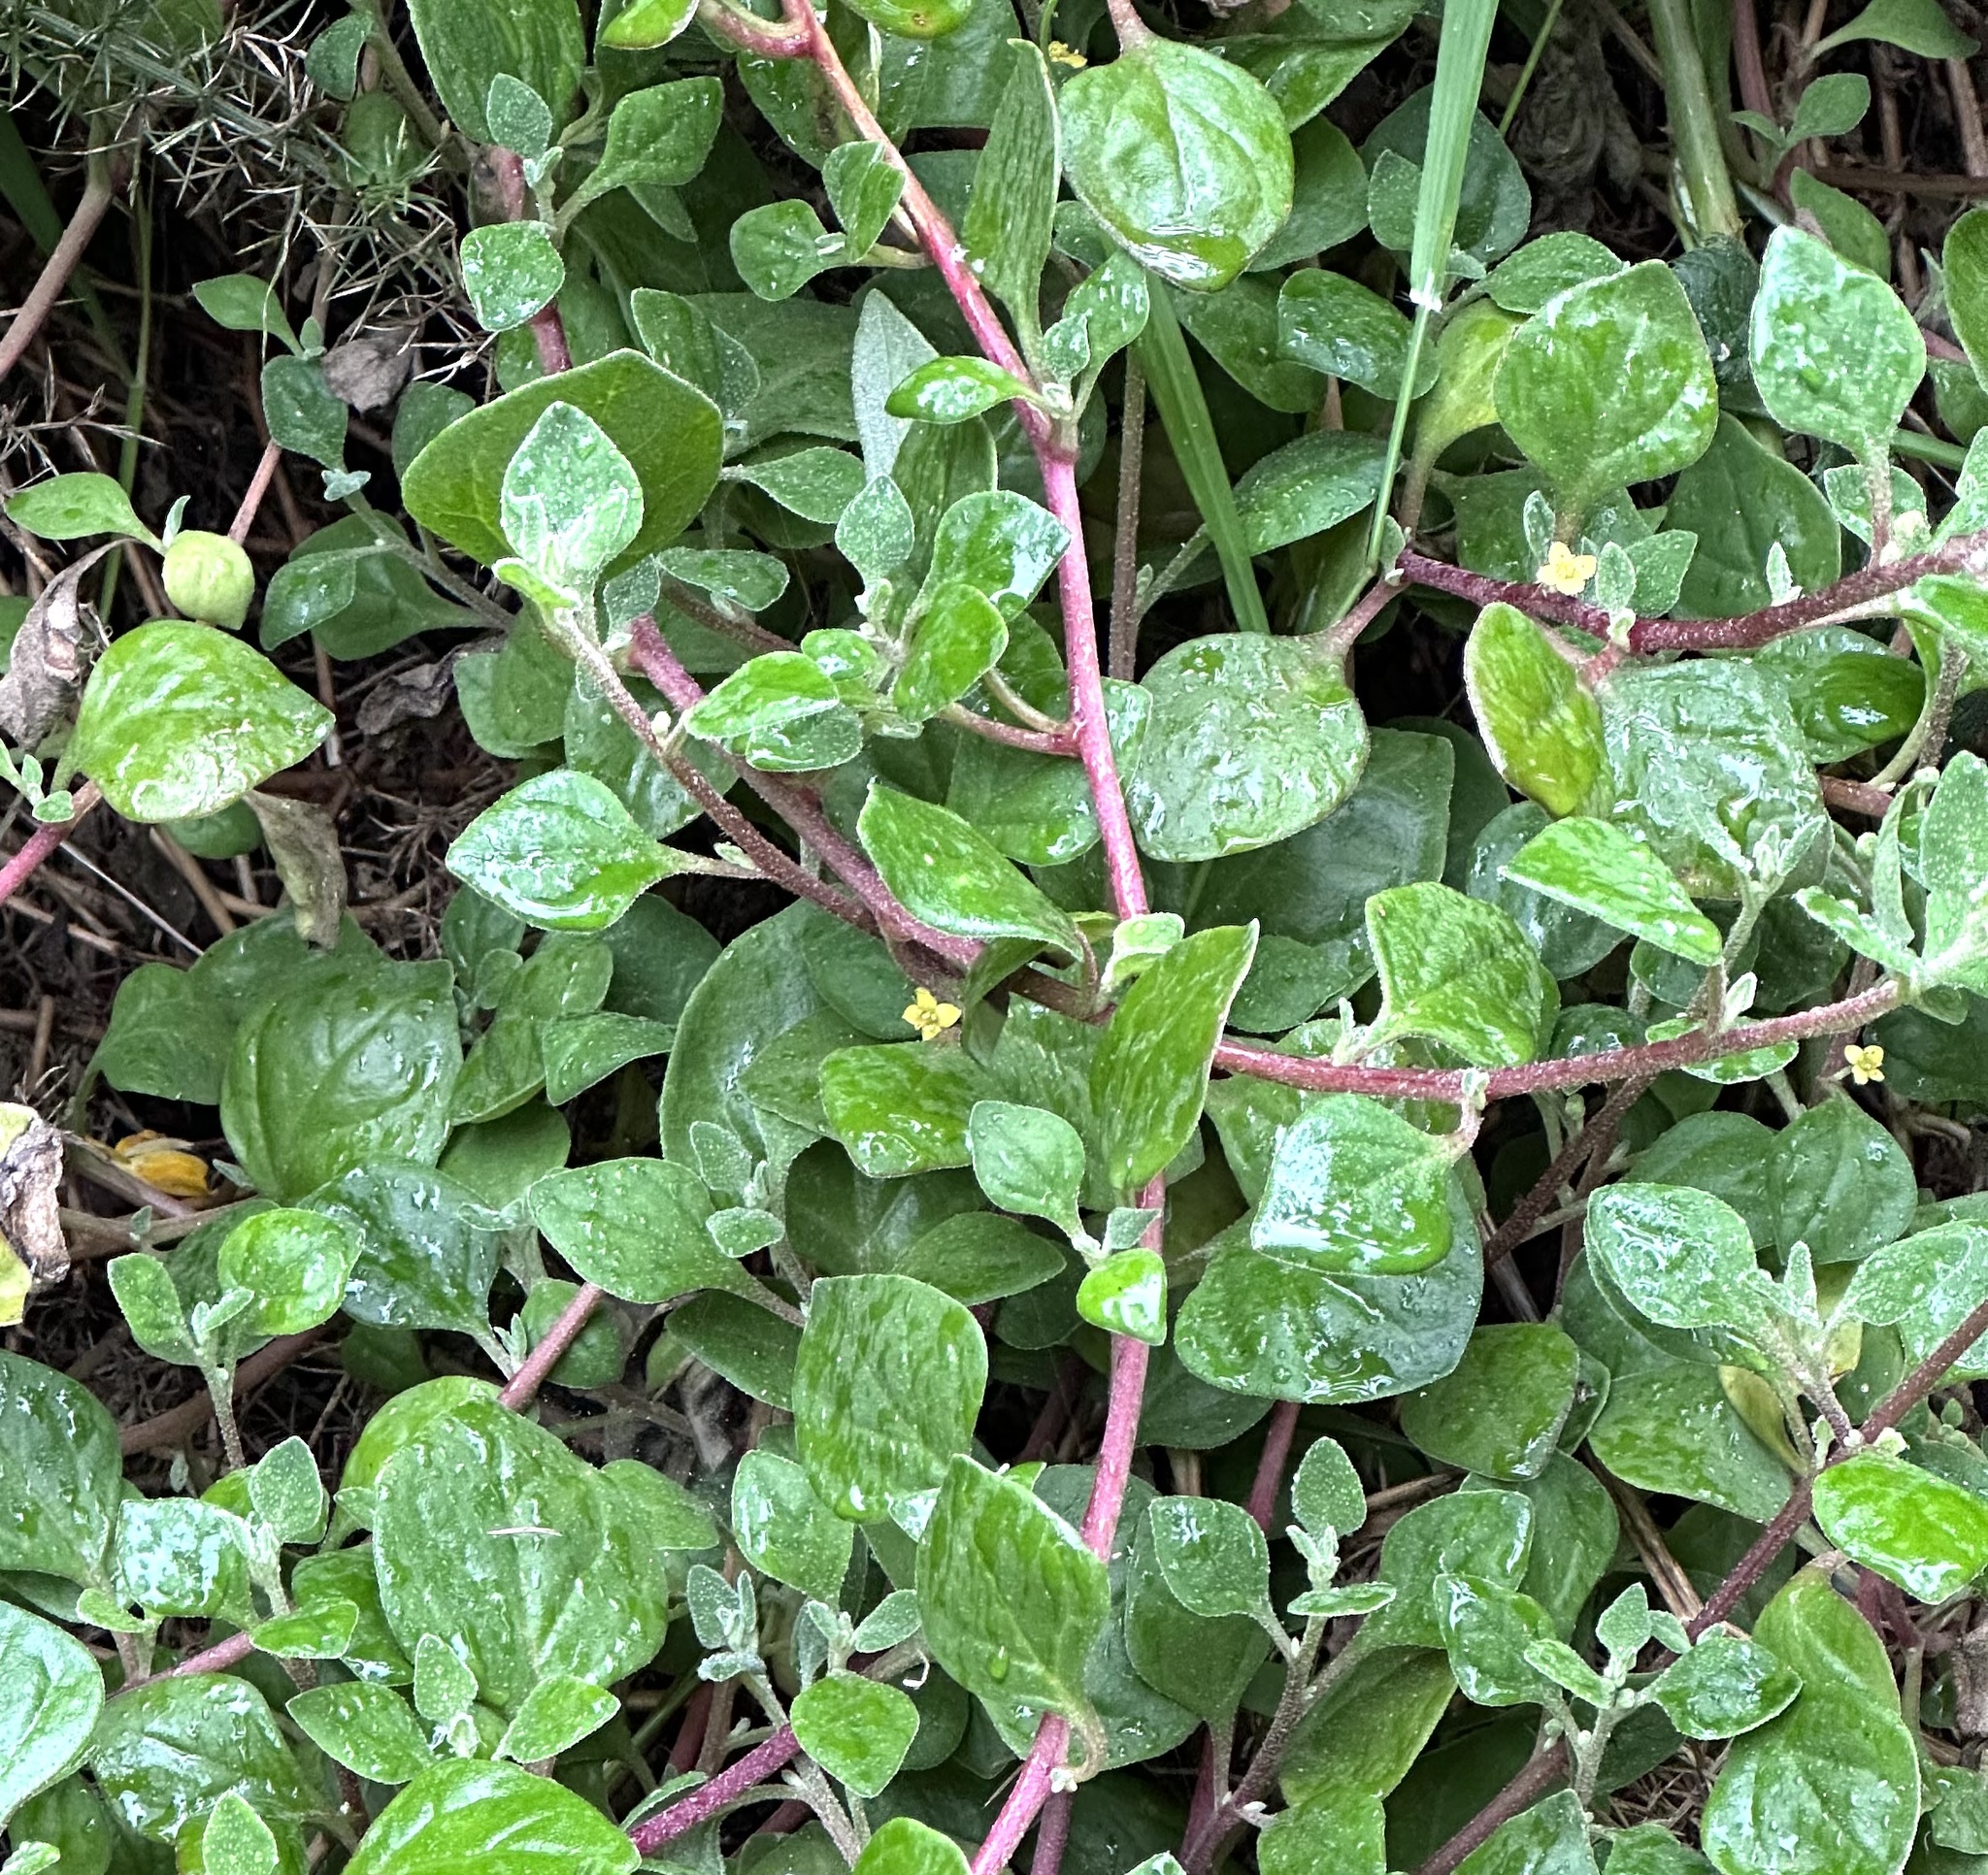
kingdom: Plantae
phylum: Tracheophyta
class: Magnoliopsida
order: Caryophyllales
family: Aizoaceae
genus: Tetragonia
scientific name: Tetragonia implexicoma
